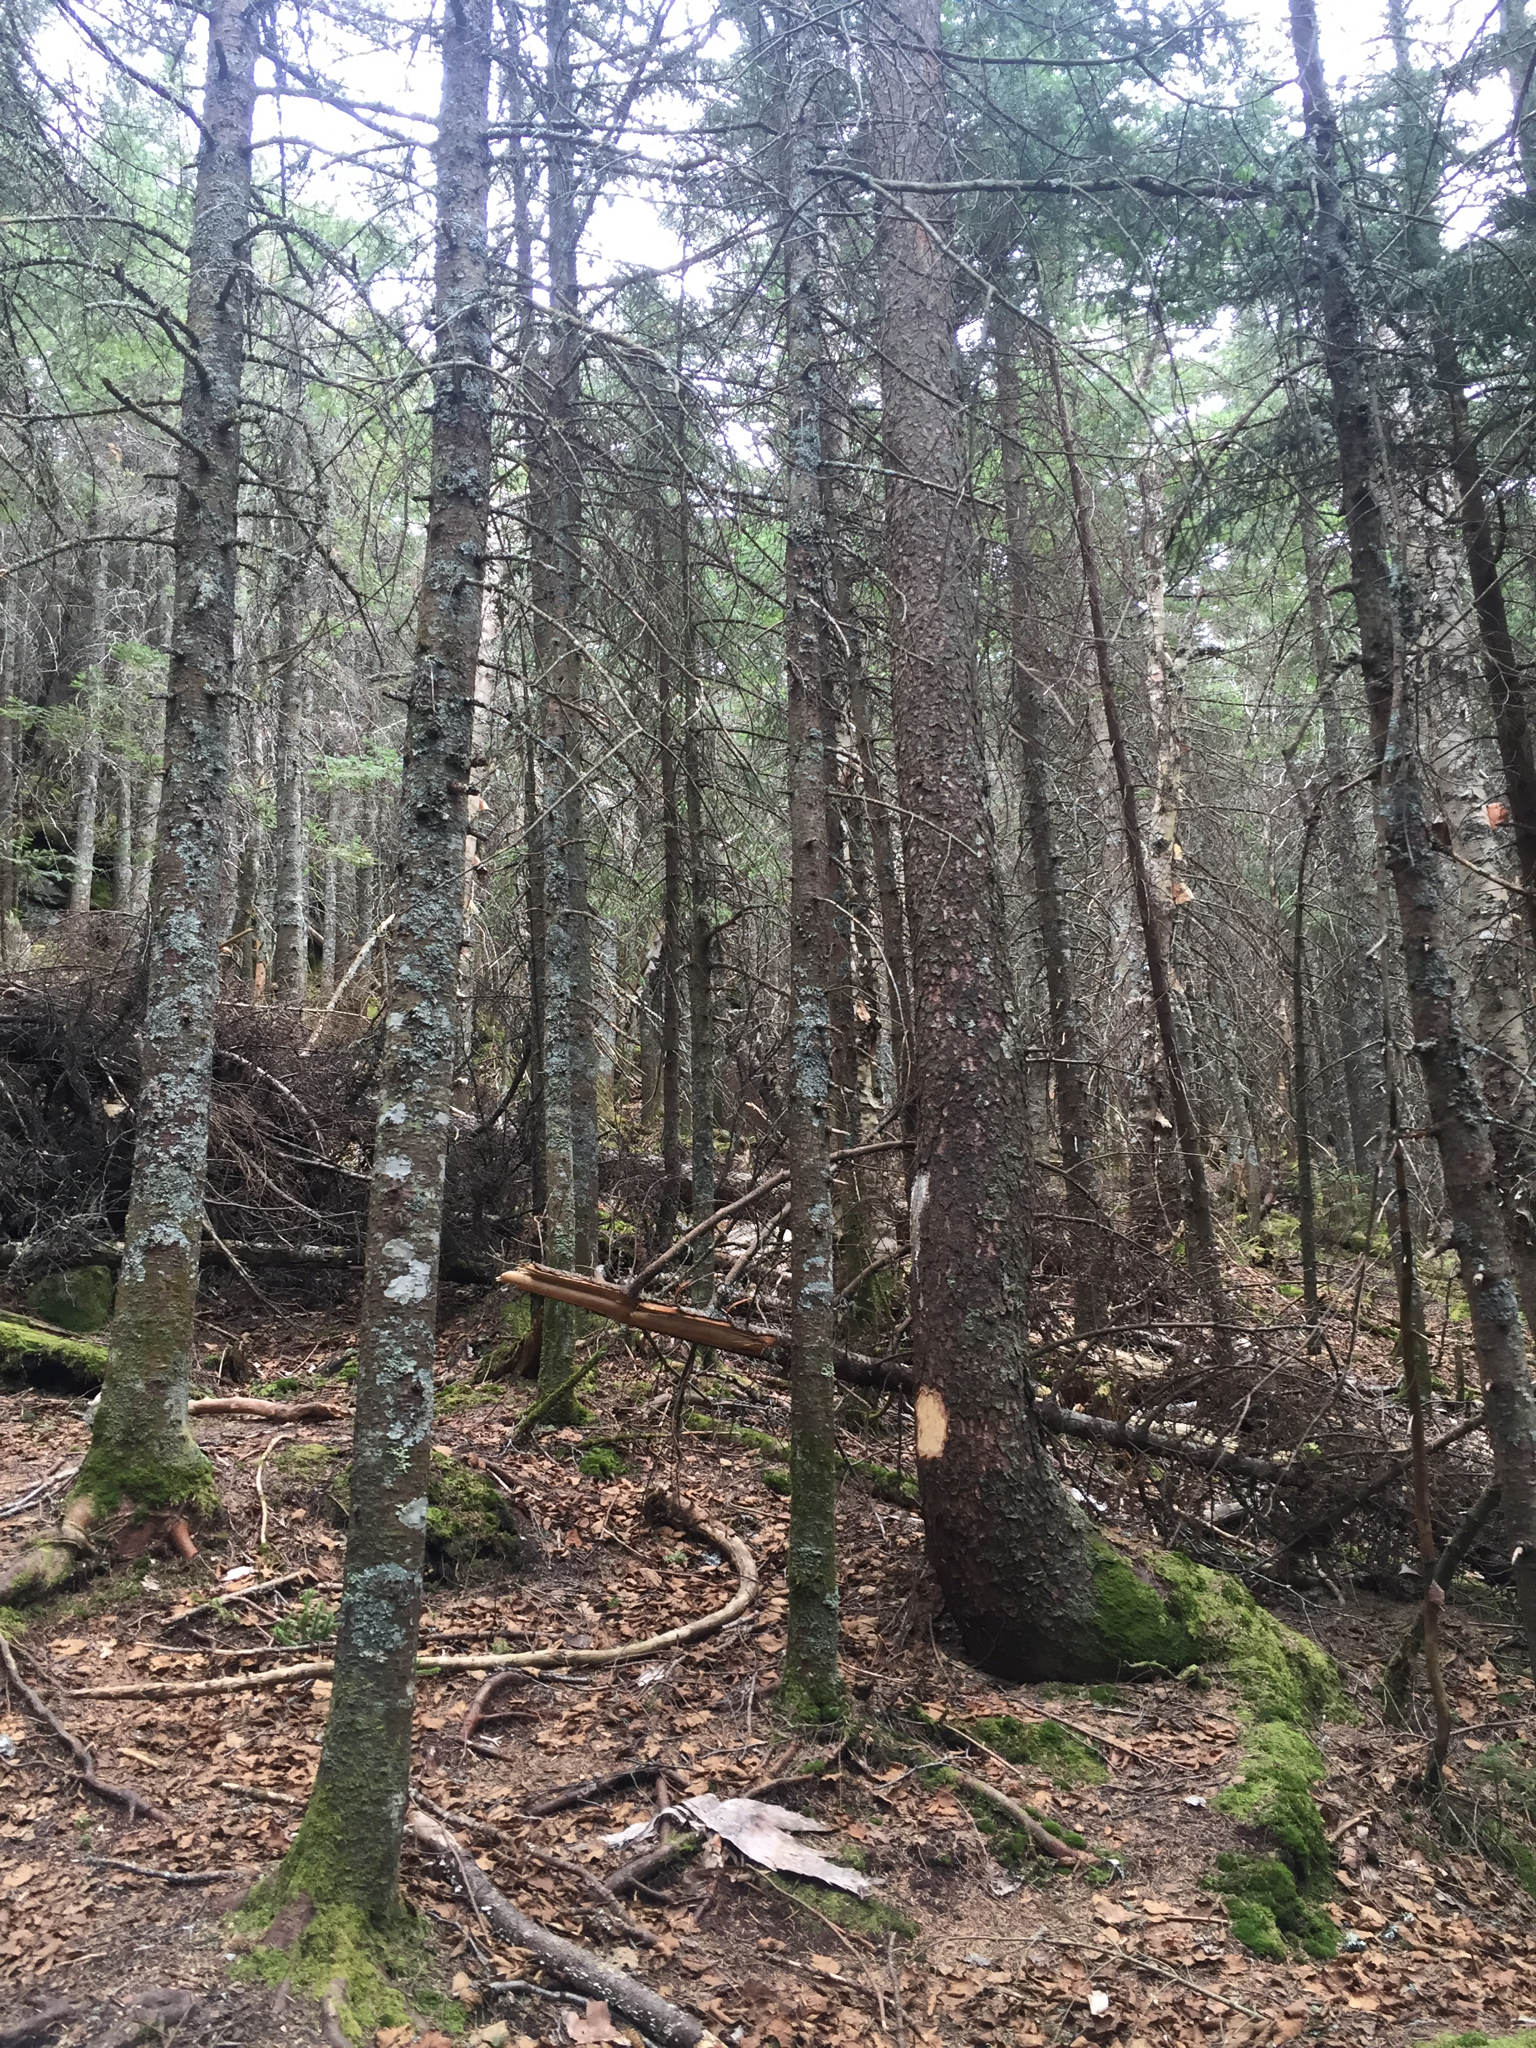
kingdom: Plantae
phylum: Tracheophyta
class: Pinopsida
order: Pinales
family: Pinaceae
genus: Abies
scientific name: Abies balsamea
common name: Balsam fir
